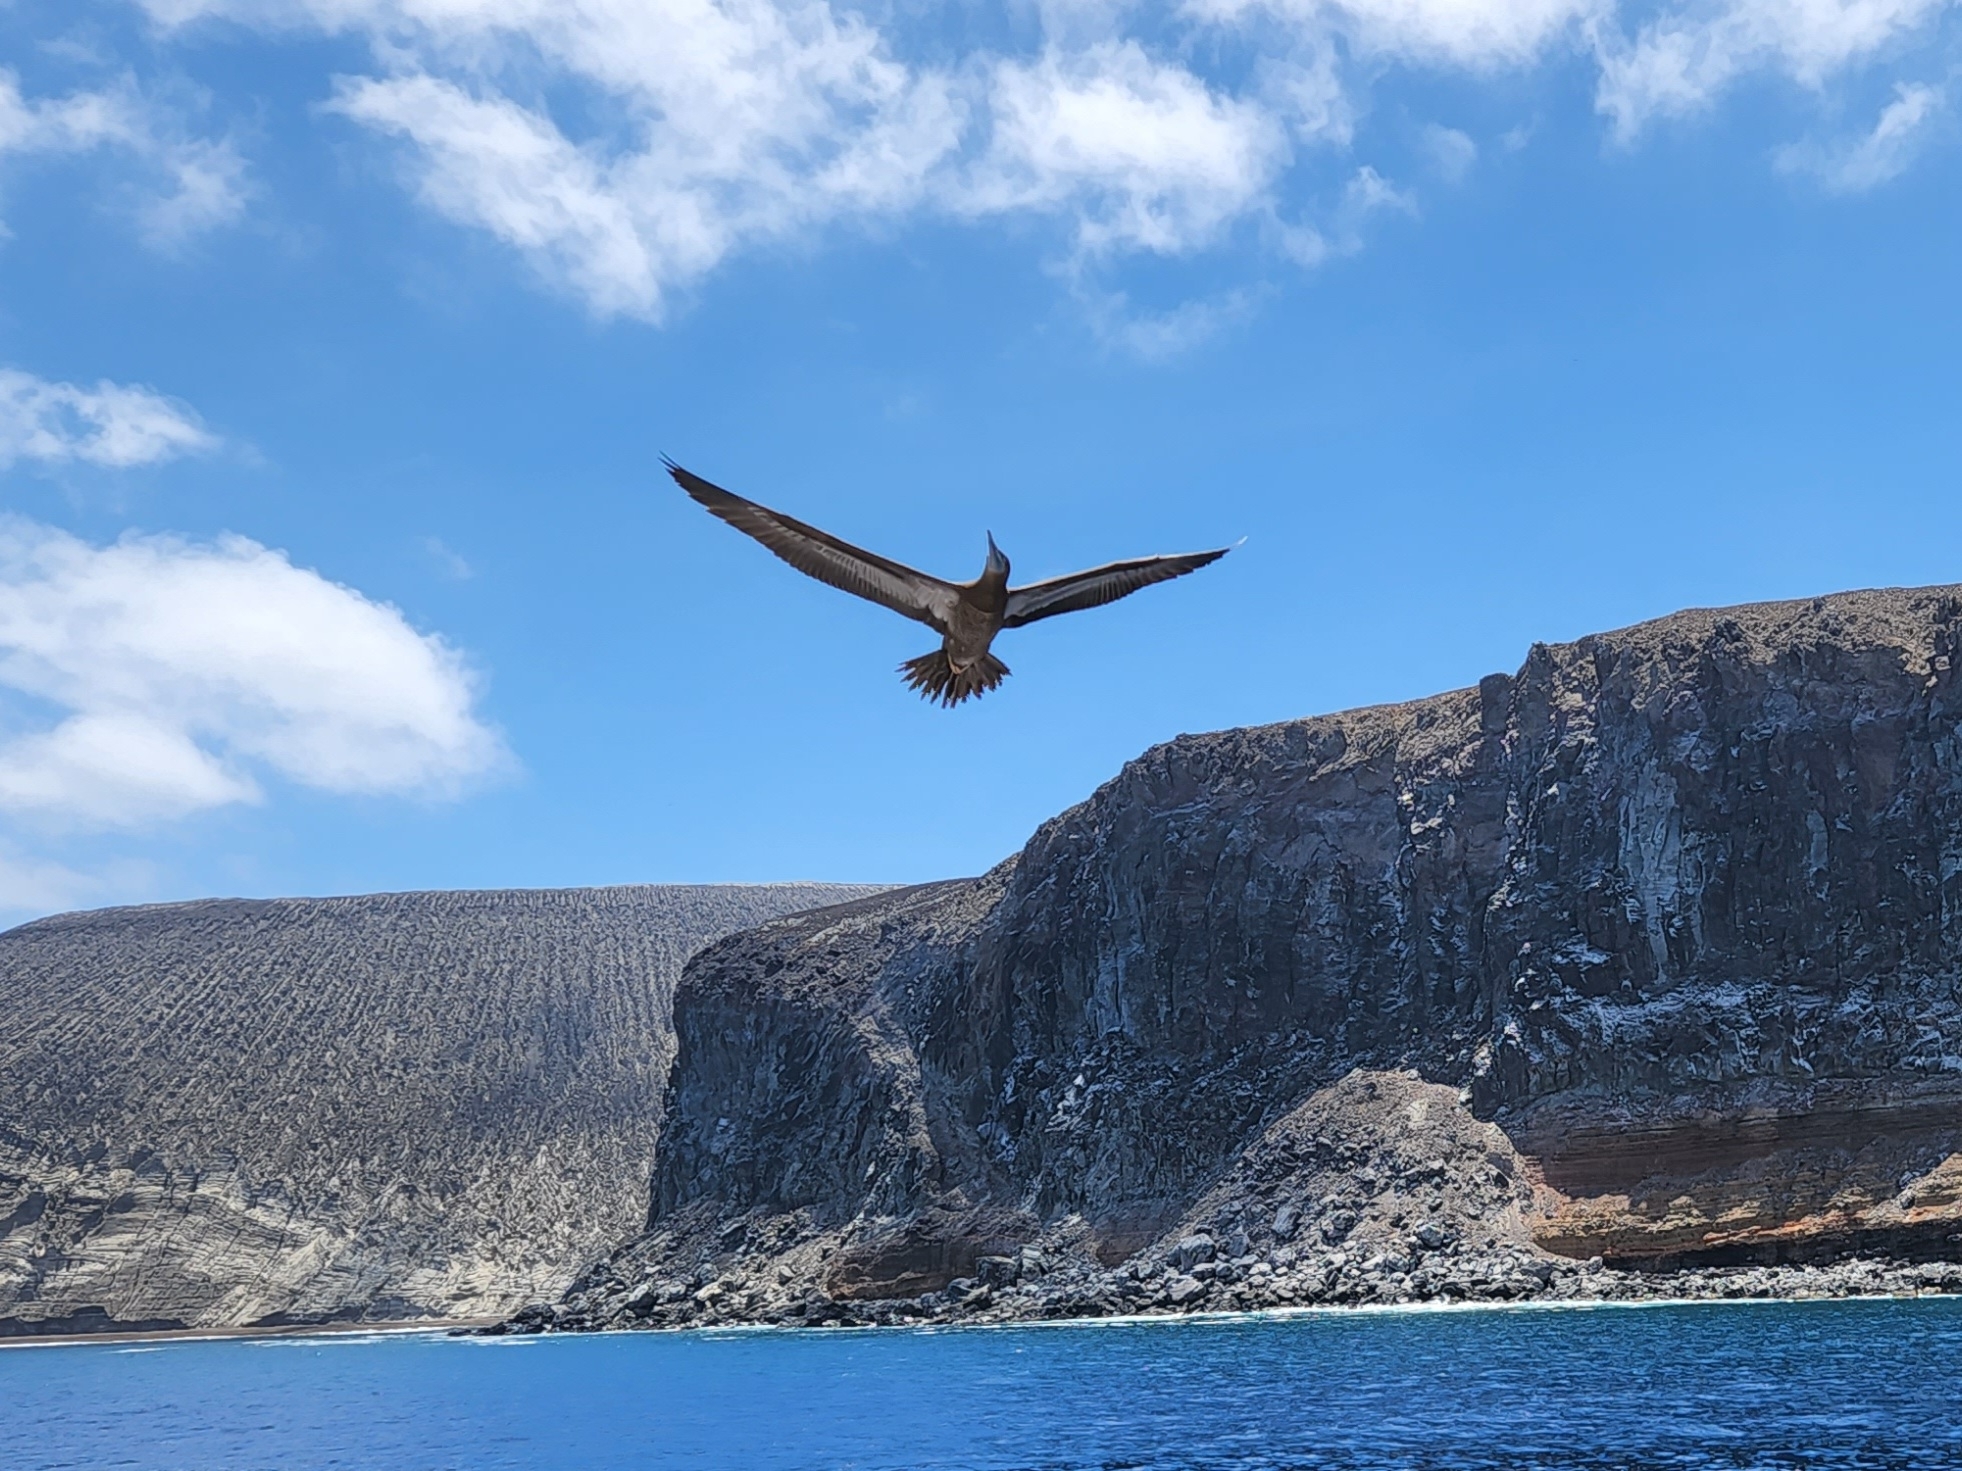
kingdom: Animalia
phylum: Chordata
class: Aves
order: Suliformes
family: Sulidae
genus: Sula
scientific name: Sula leucogaster
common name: Brown booby
